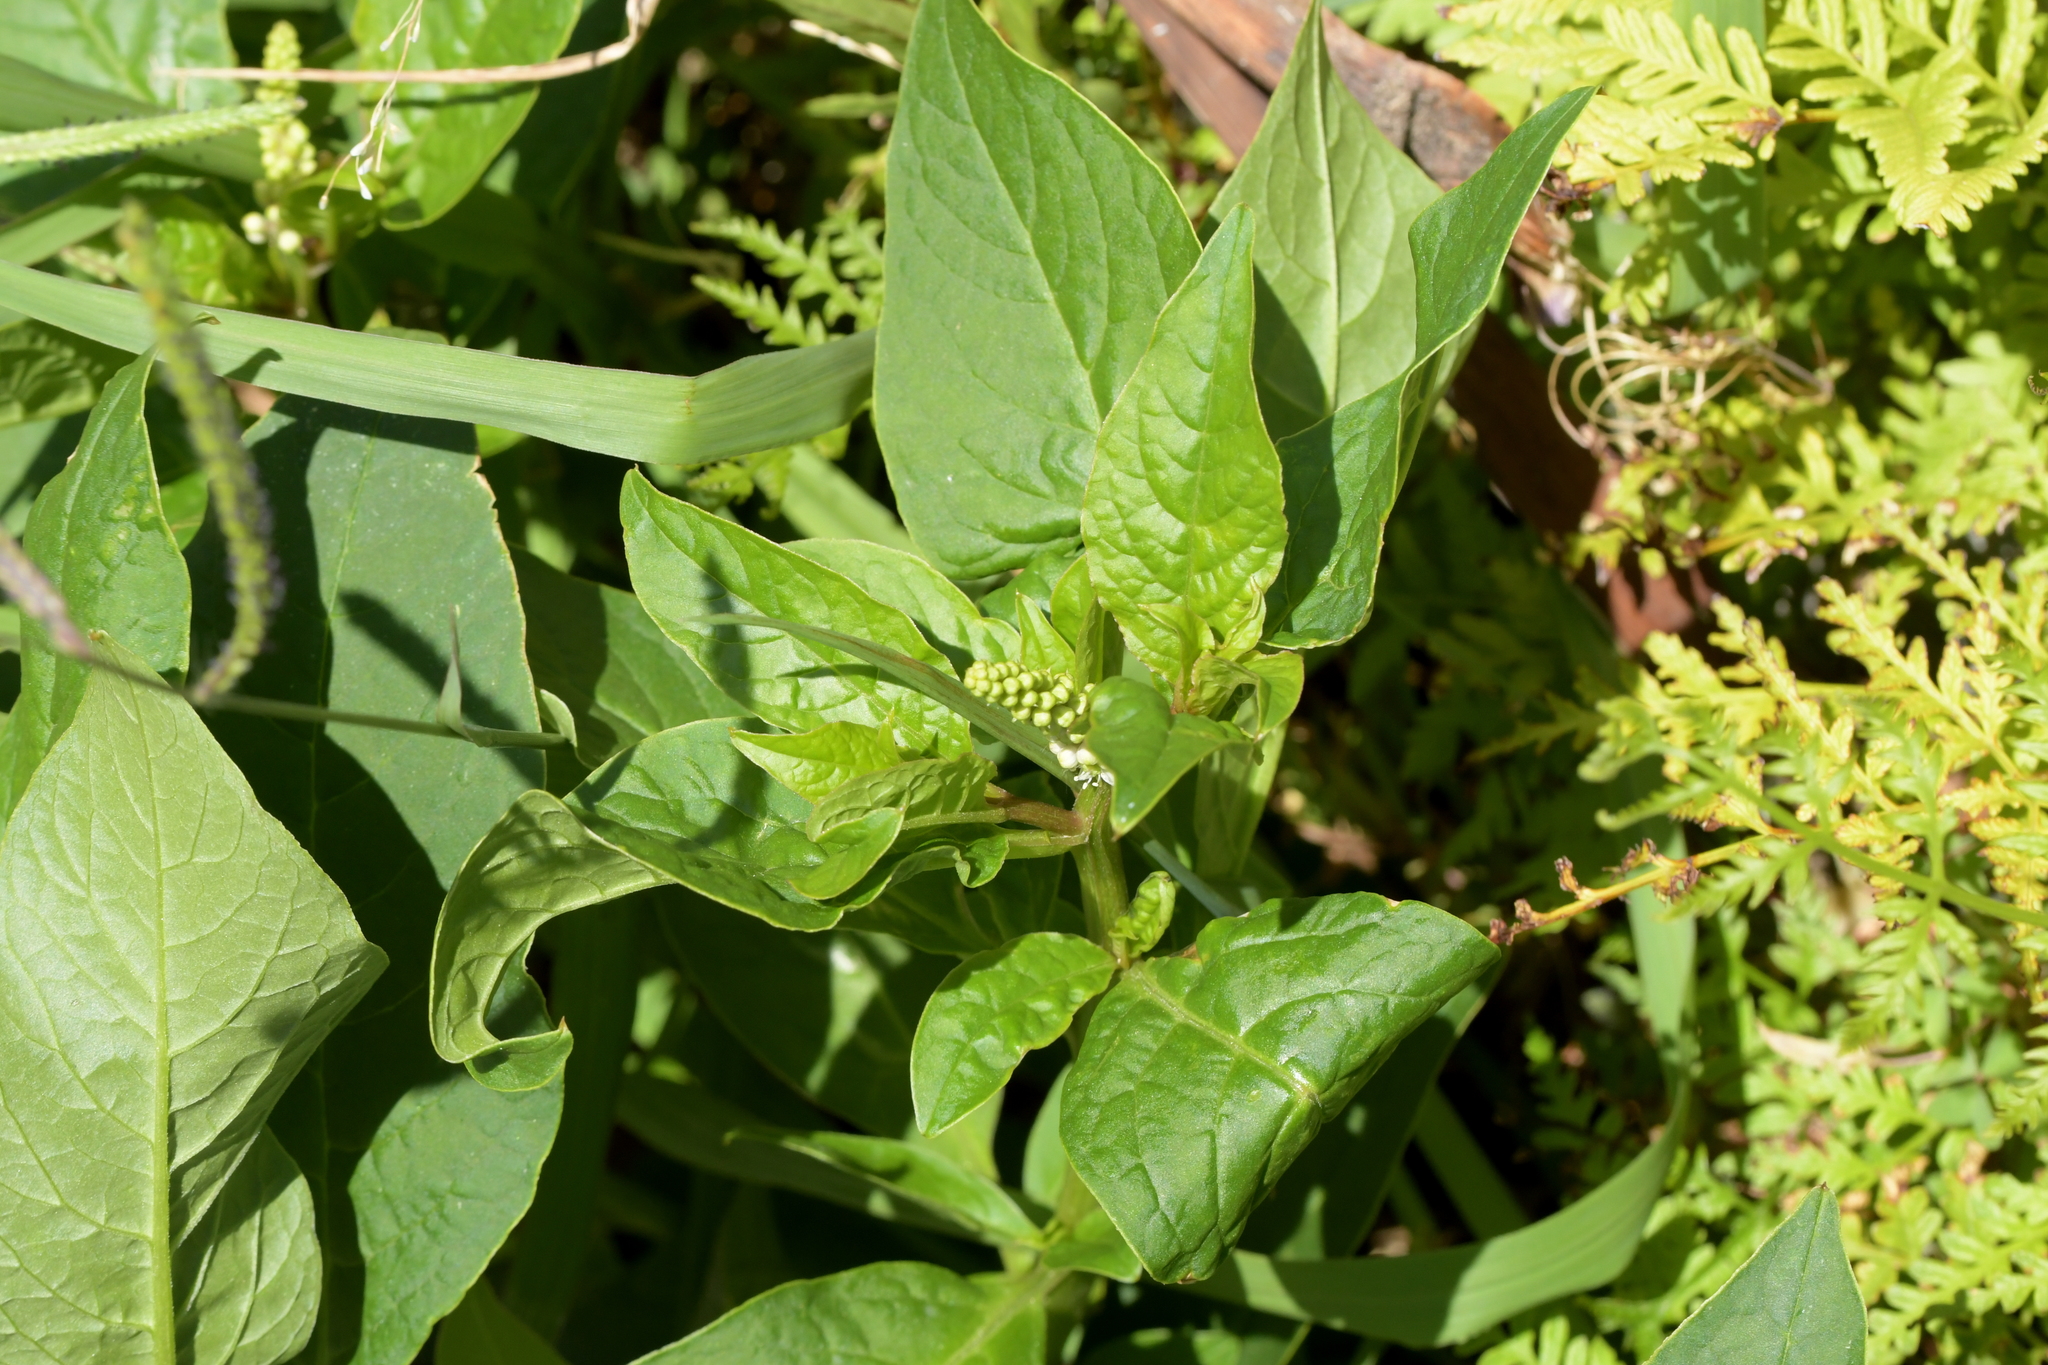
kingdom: Plantae
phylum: Tracheophyta
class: Magnoliopsida
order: Caryophyllales
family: Phytolaccaceae
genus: Phytolacca
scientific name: Phytolacca icosandra
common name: Button pokeweed
